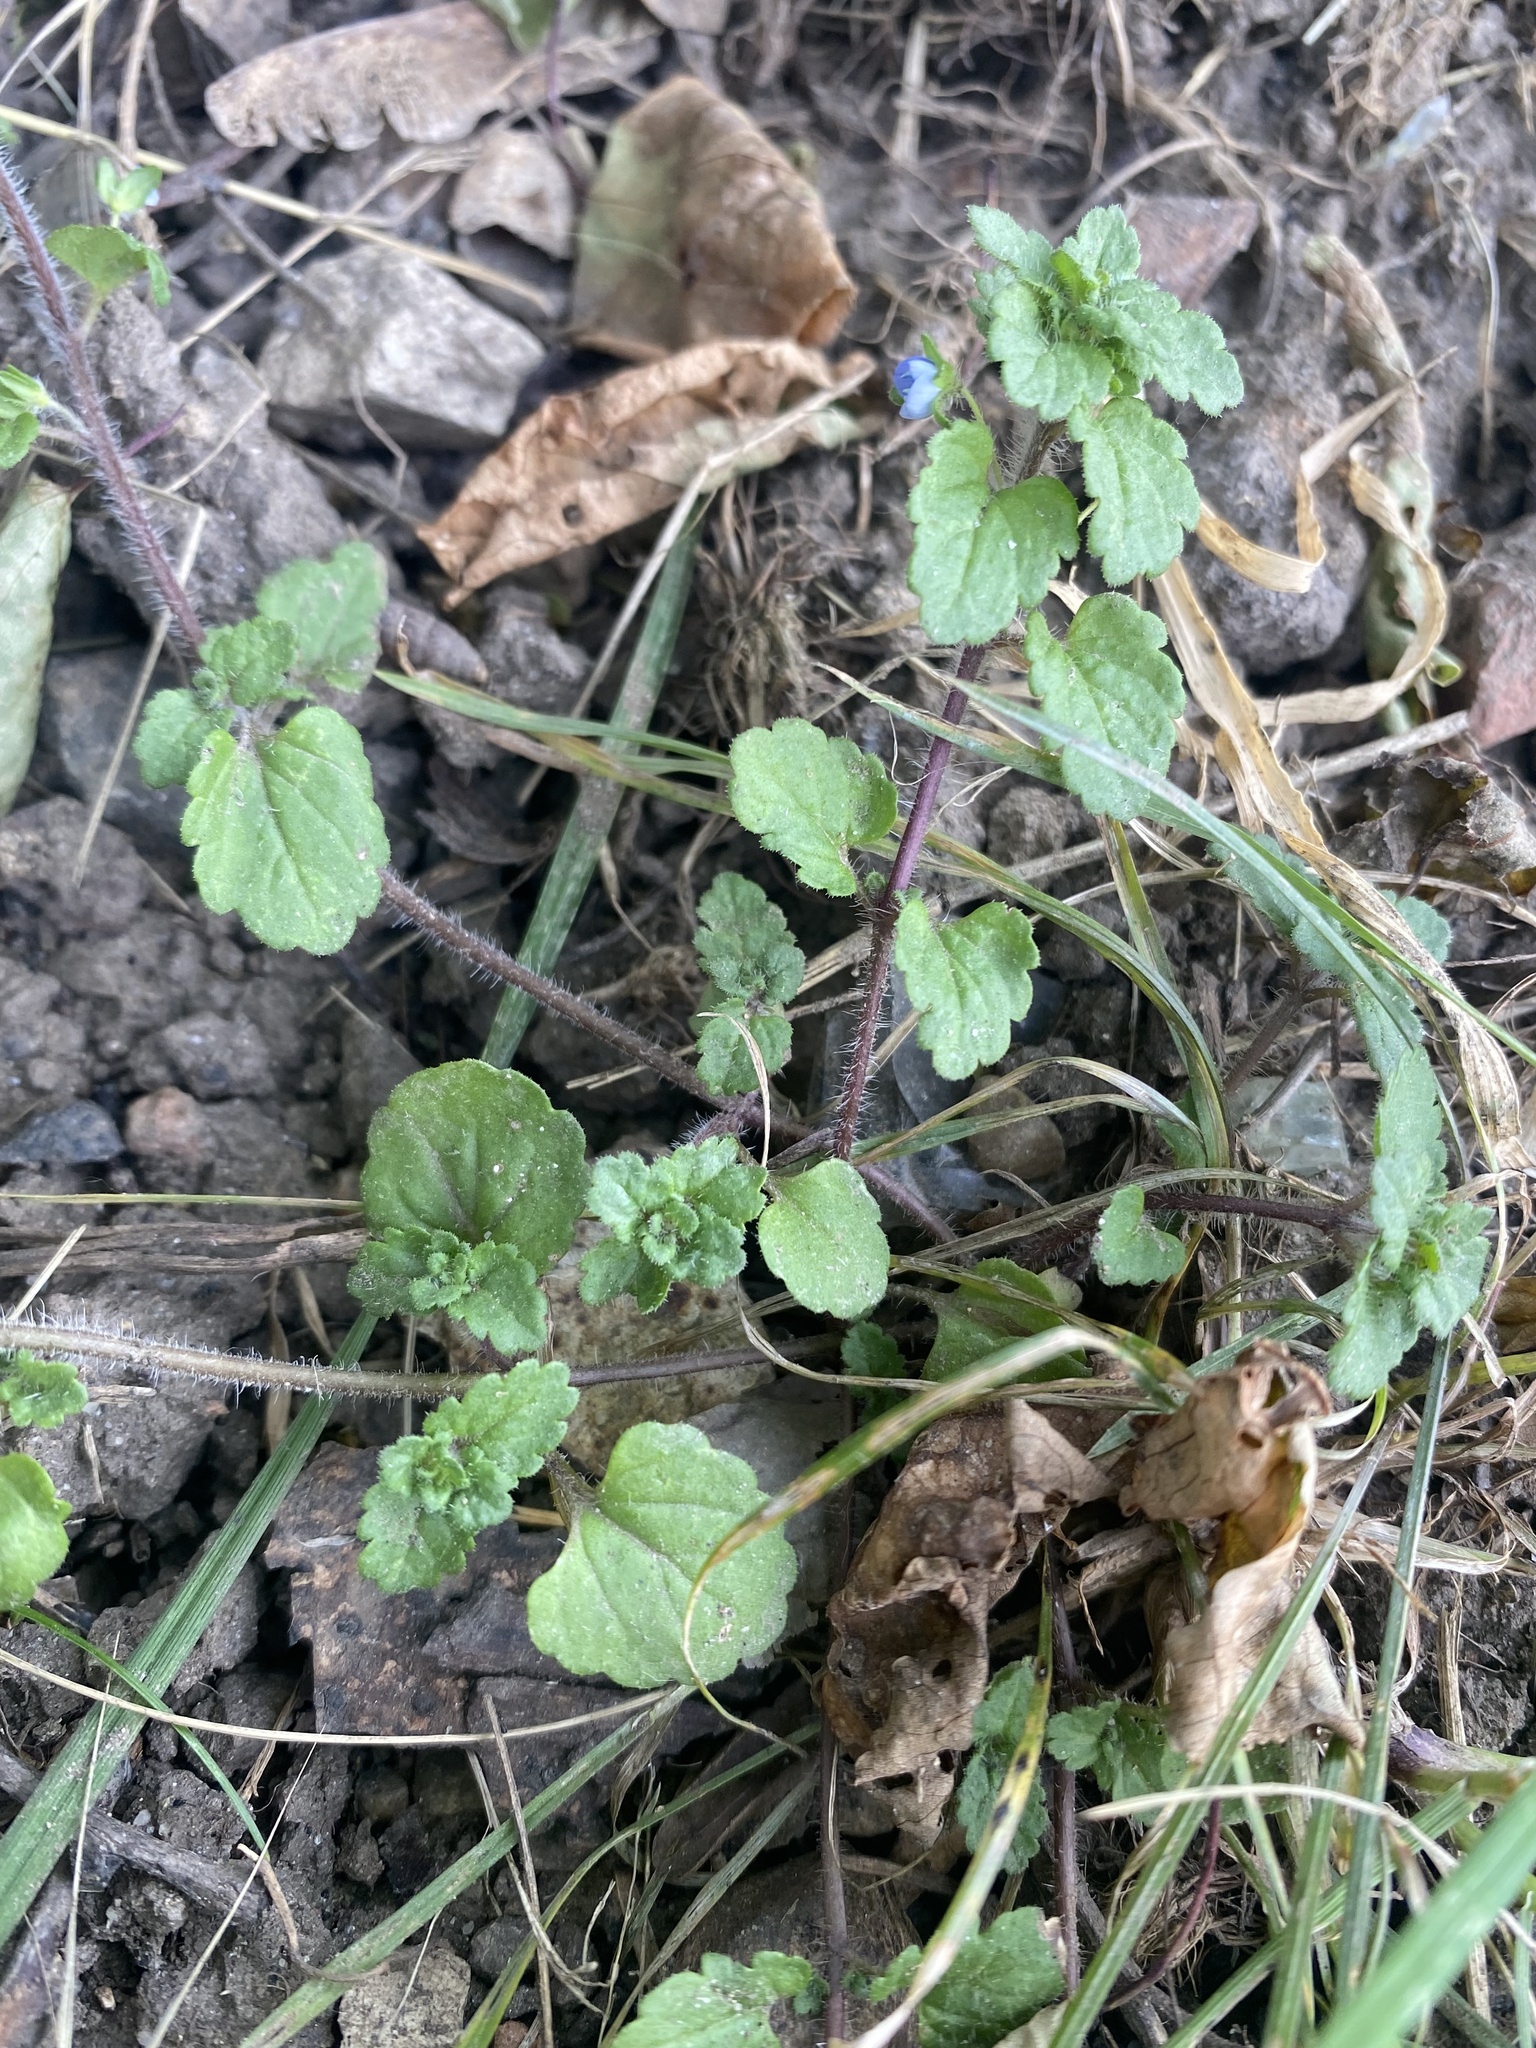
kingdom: Plantae
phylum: Tracheophyta
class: Magnoliopsida
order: Lamiales
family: Plantaginaceae
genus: Veronica
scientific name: Veronica polita
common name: Grey field-speedwell
